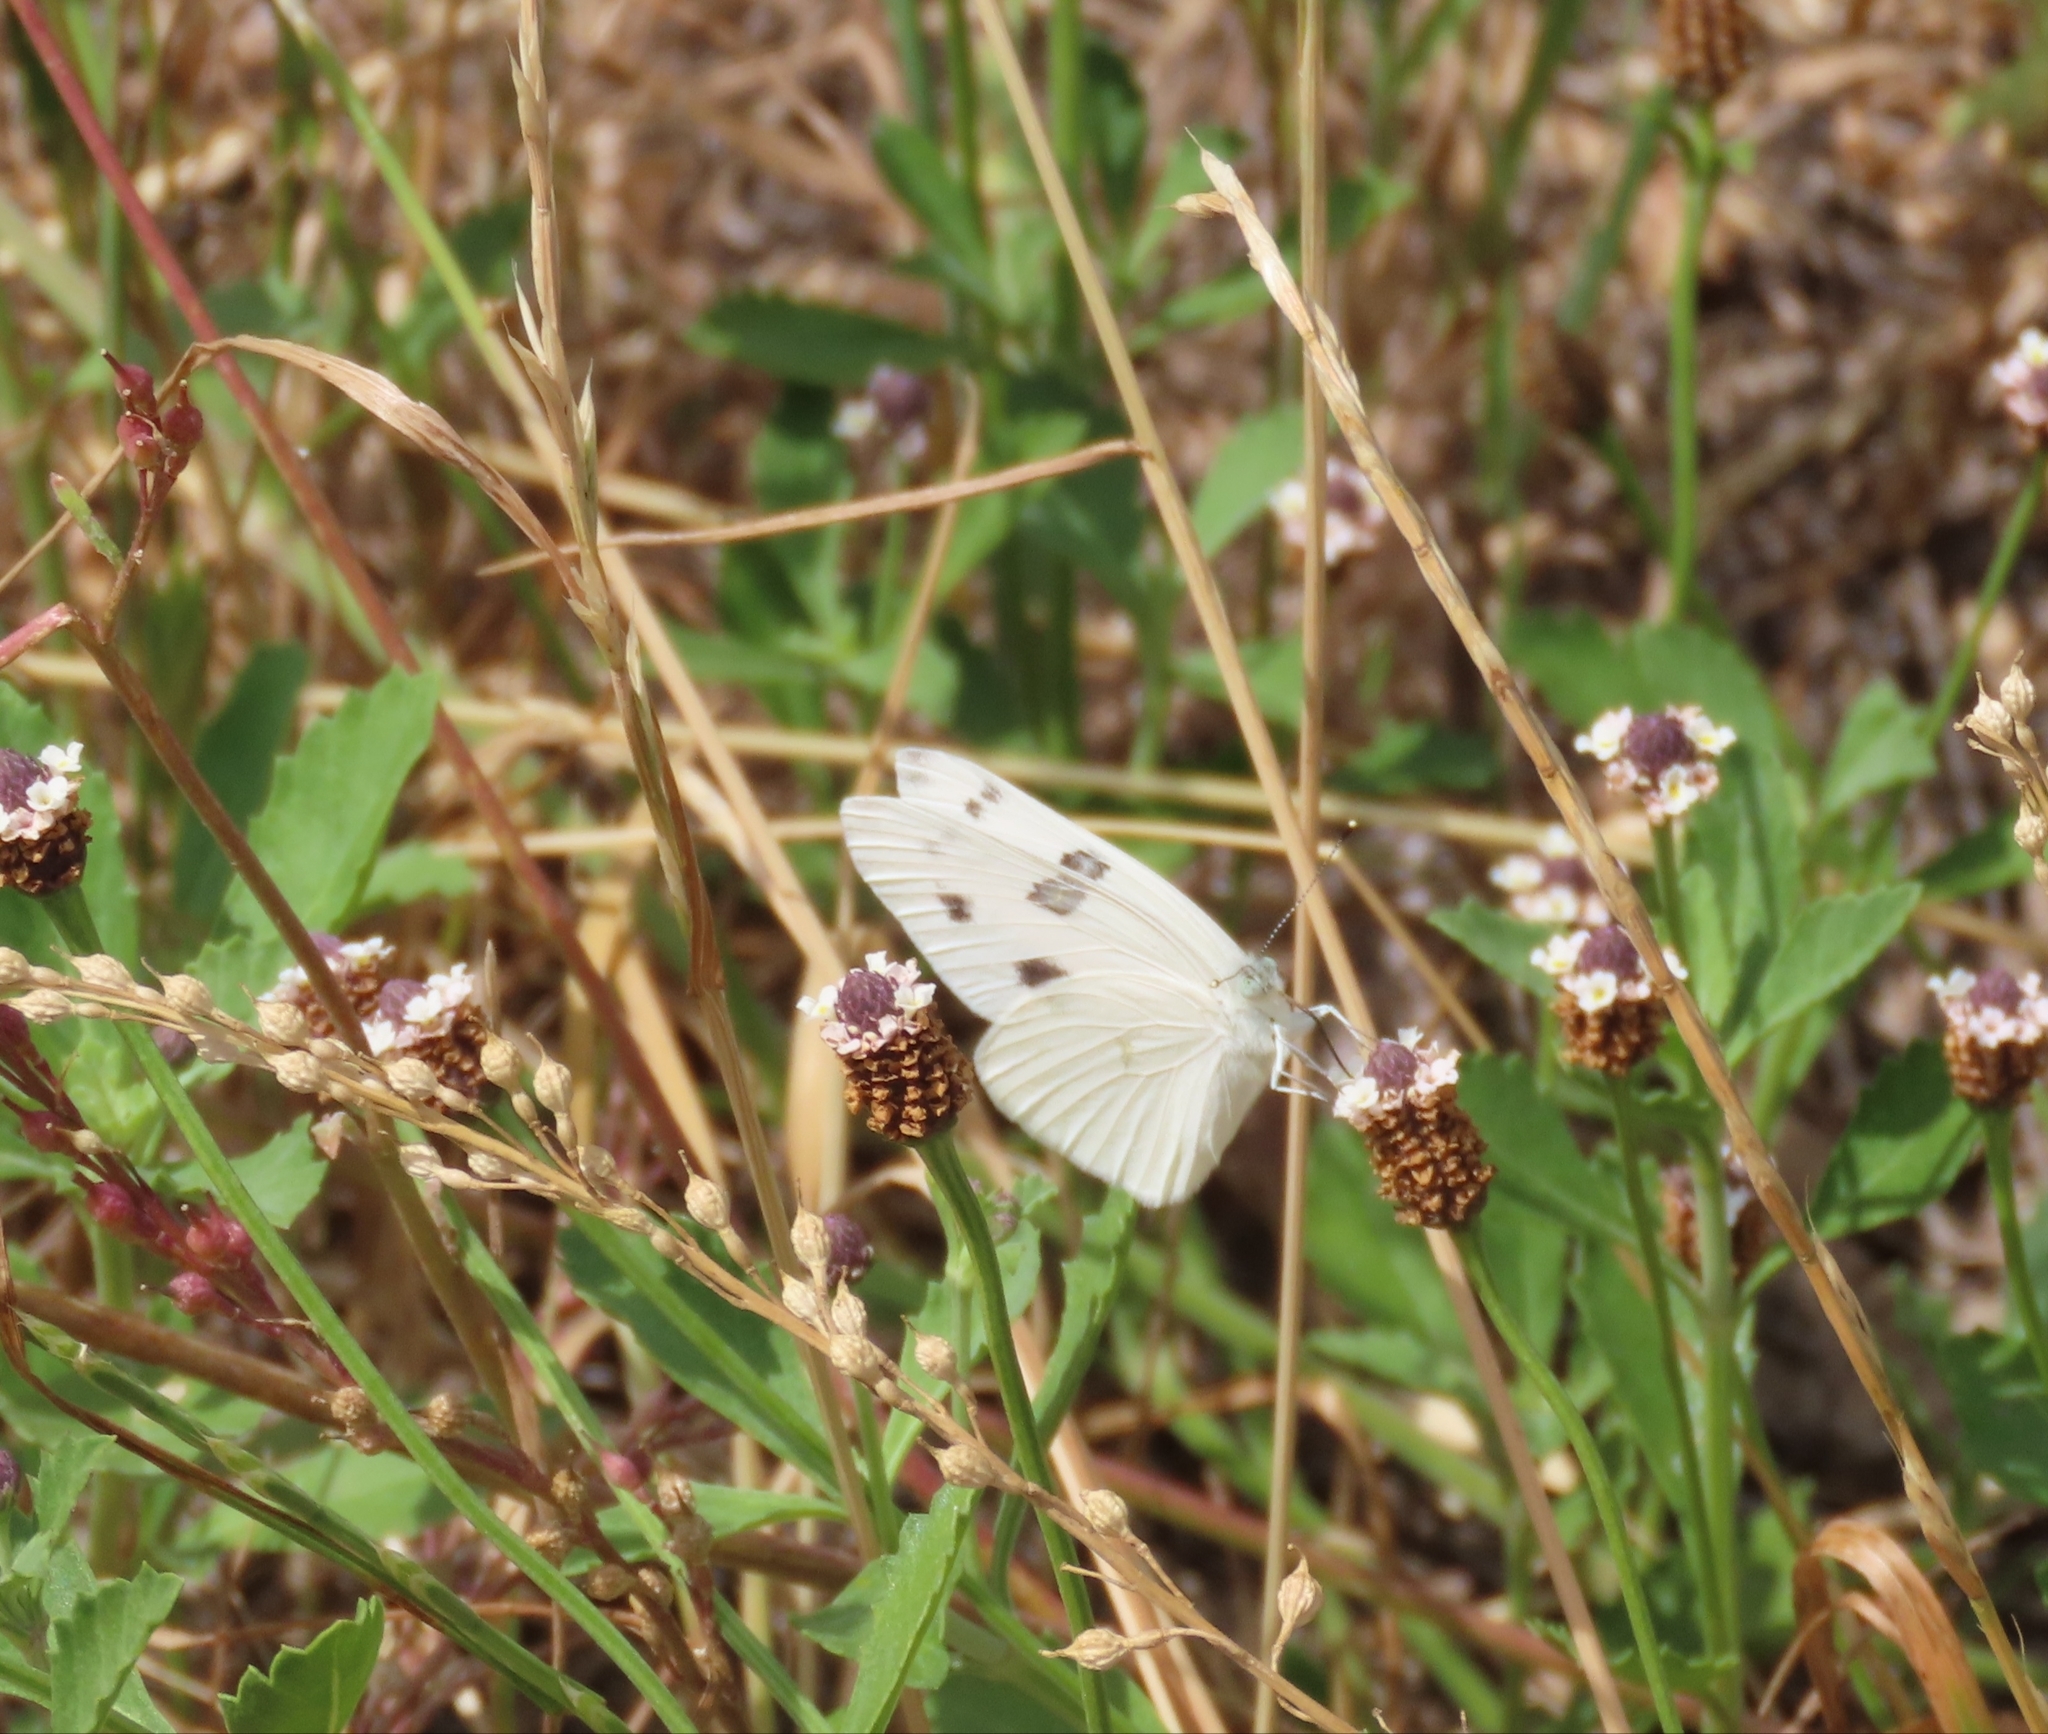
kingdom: Animalia
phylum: Arthropoda
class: Insecta
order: Lepidoptera
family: Pieridae
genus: Pontia
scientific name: Pontia protodice
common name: Checkered white
